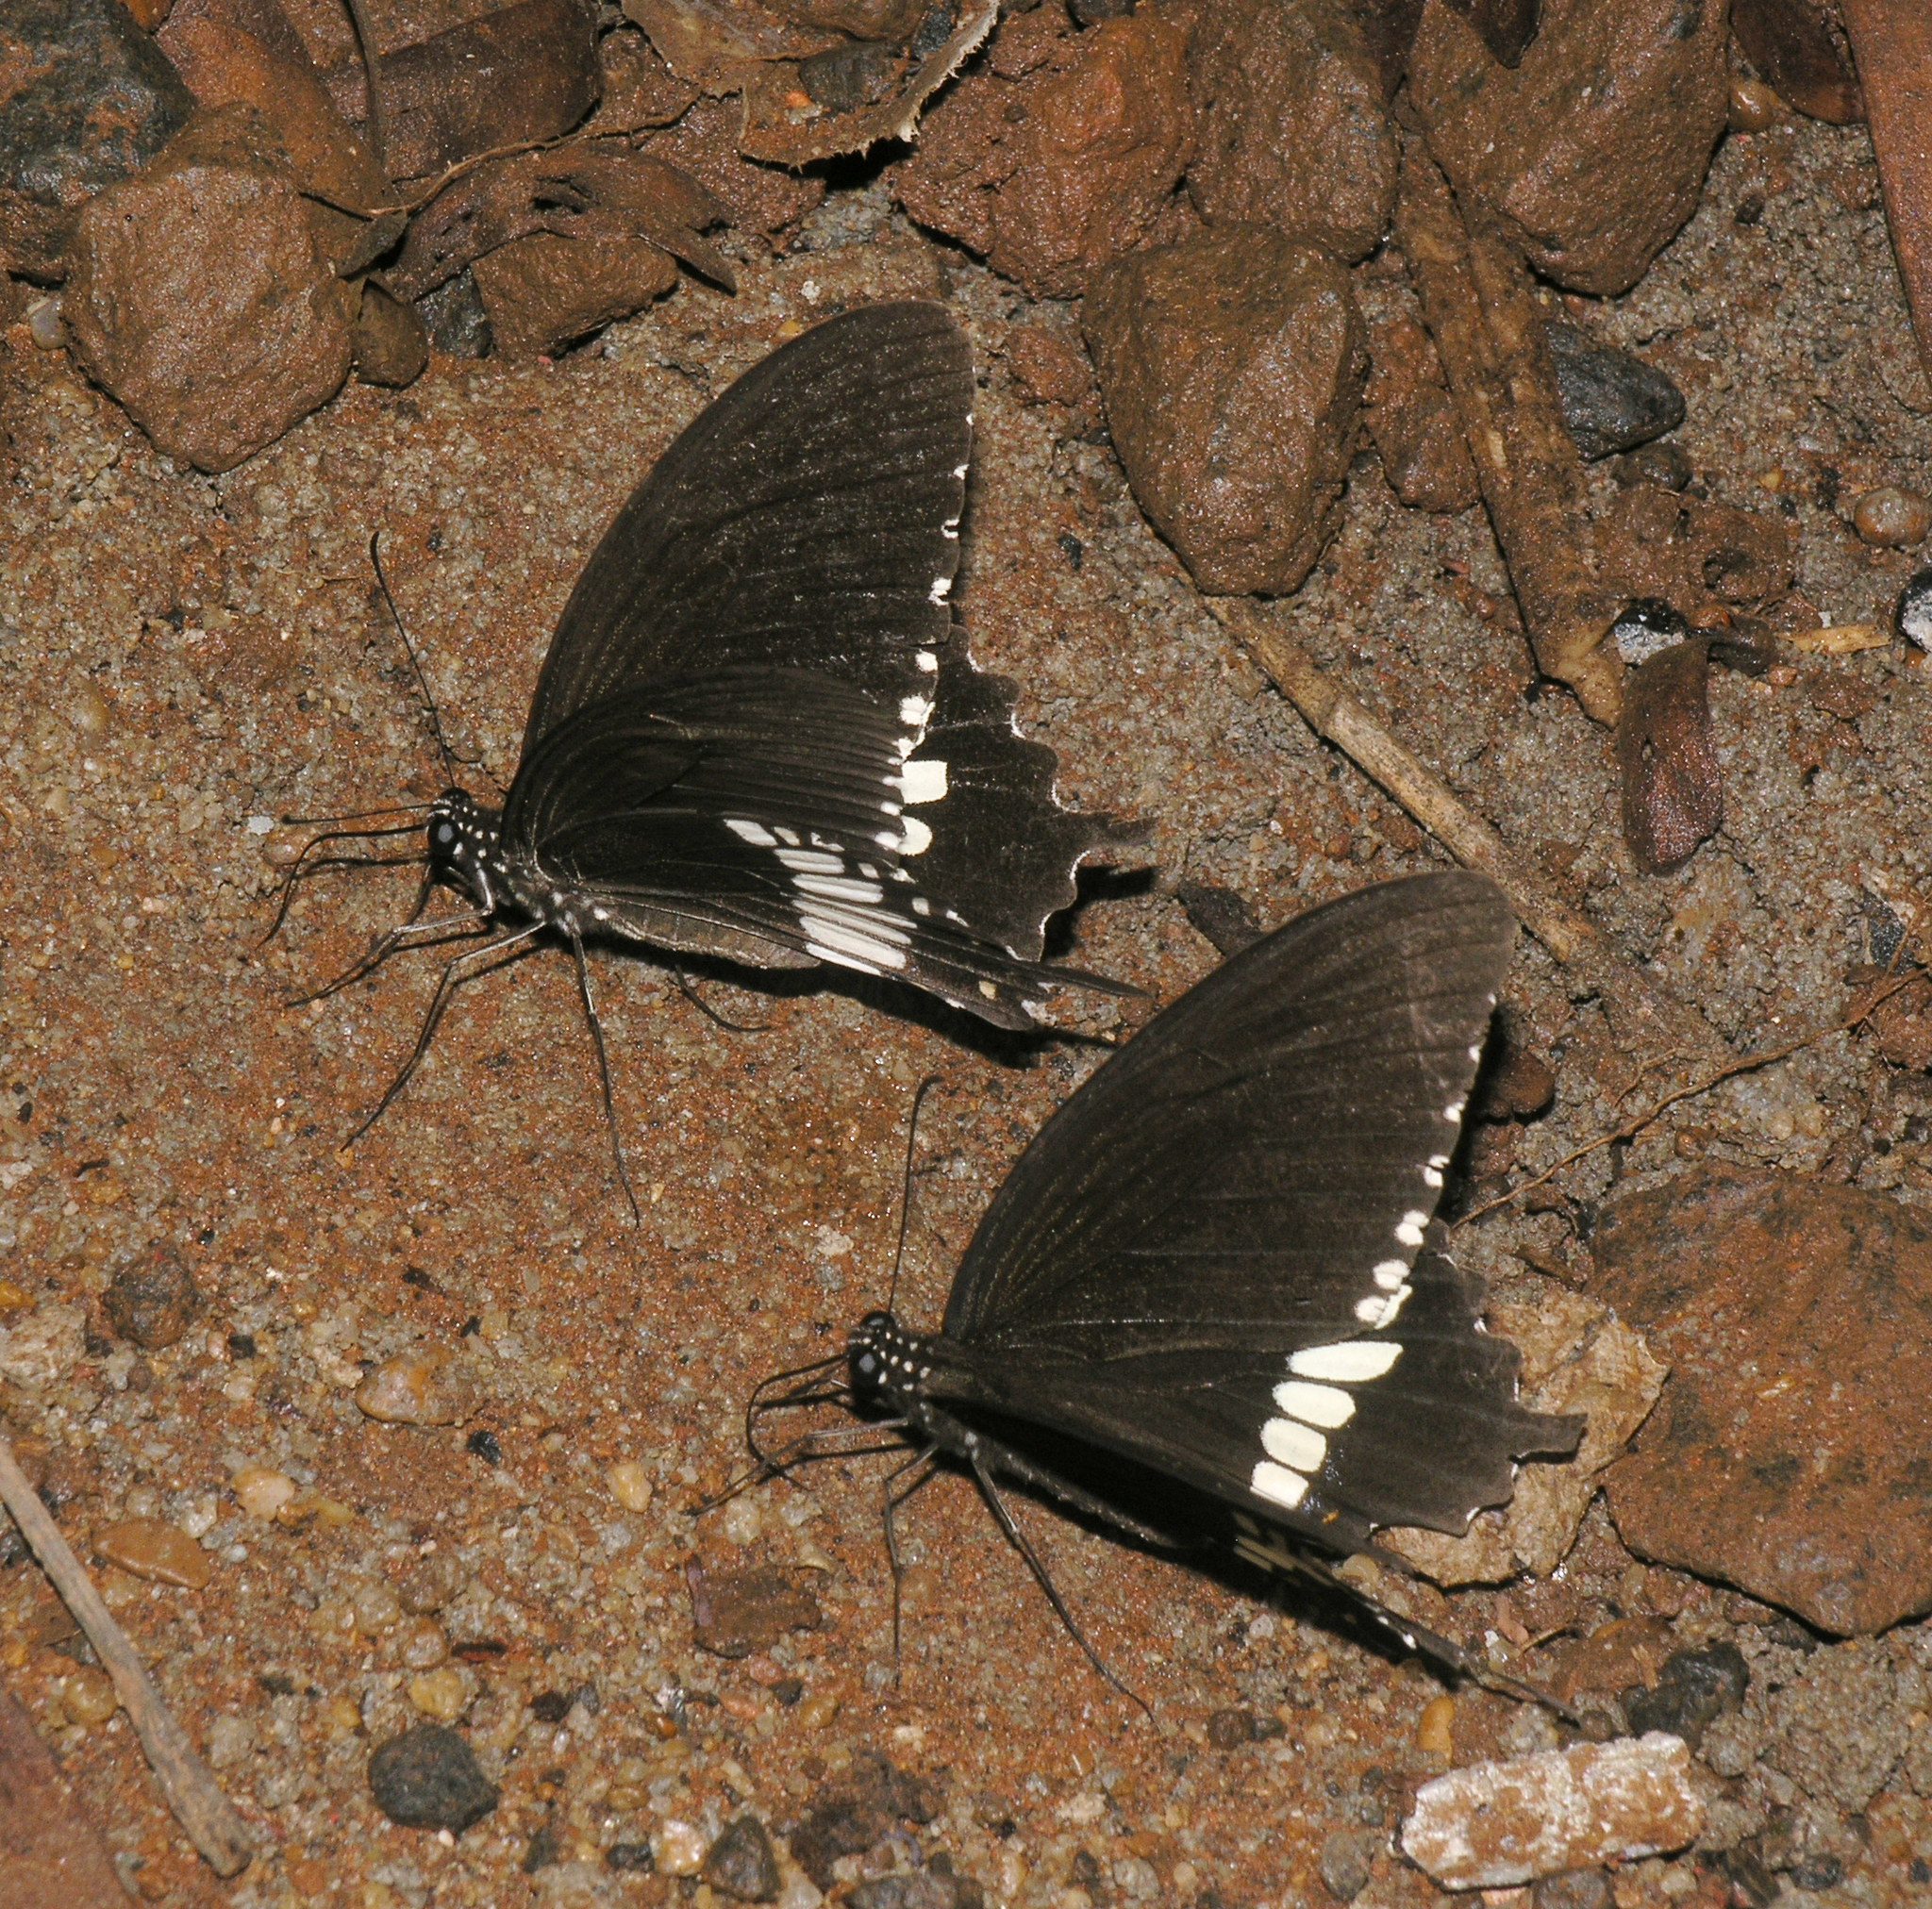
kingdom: Animalia
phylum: Arthropoda
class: Insecta
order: Lepidoptera
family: Papilionidae
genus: Papilio
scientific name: Papilio polytes
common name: Common mormon
